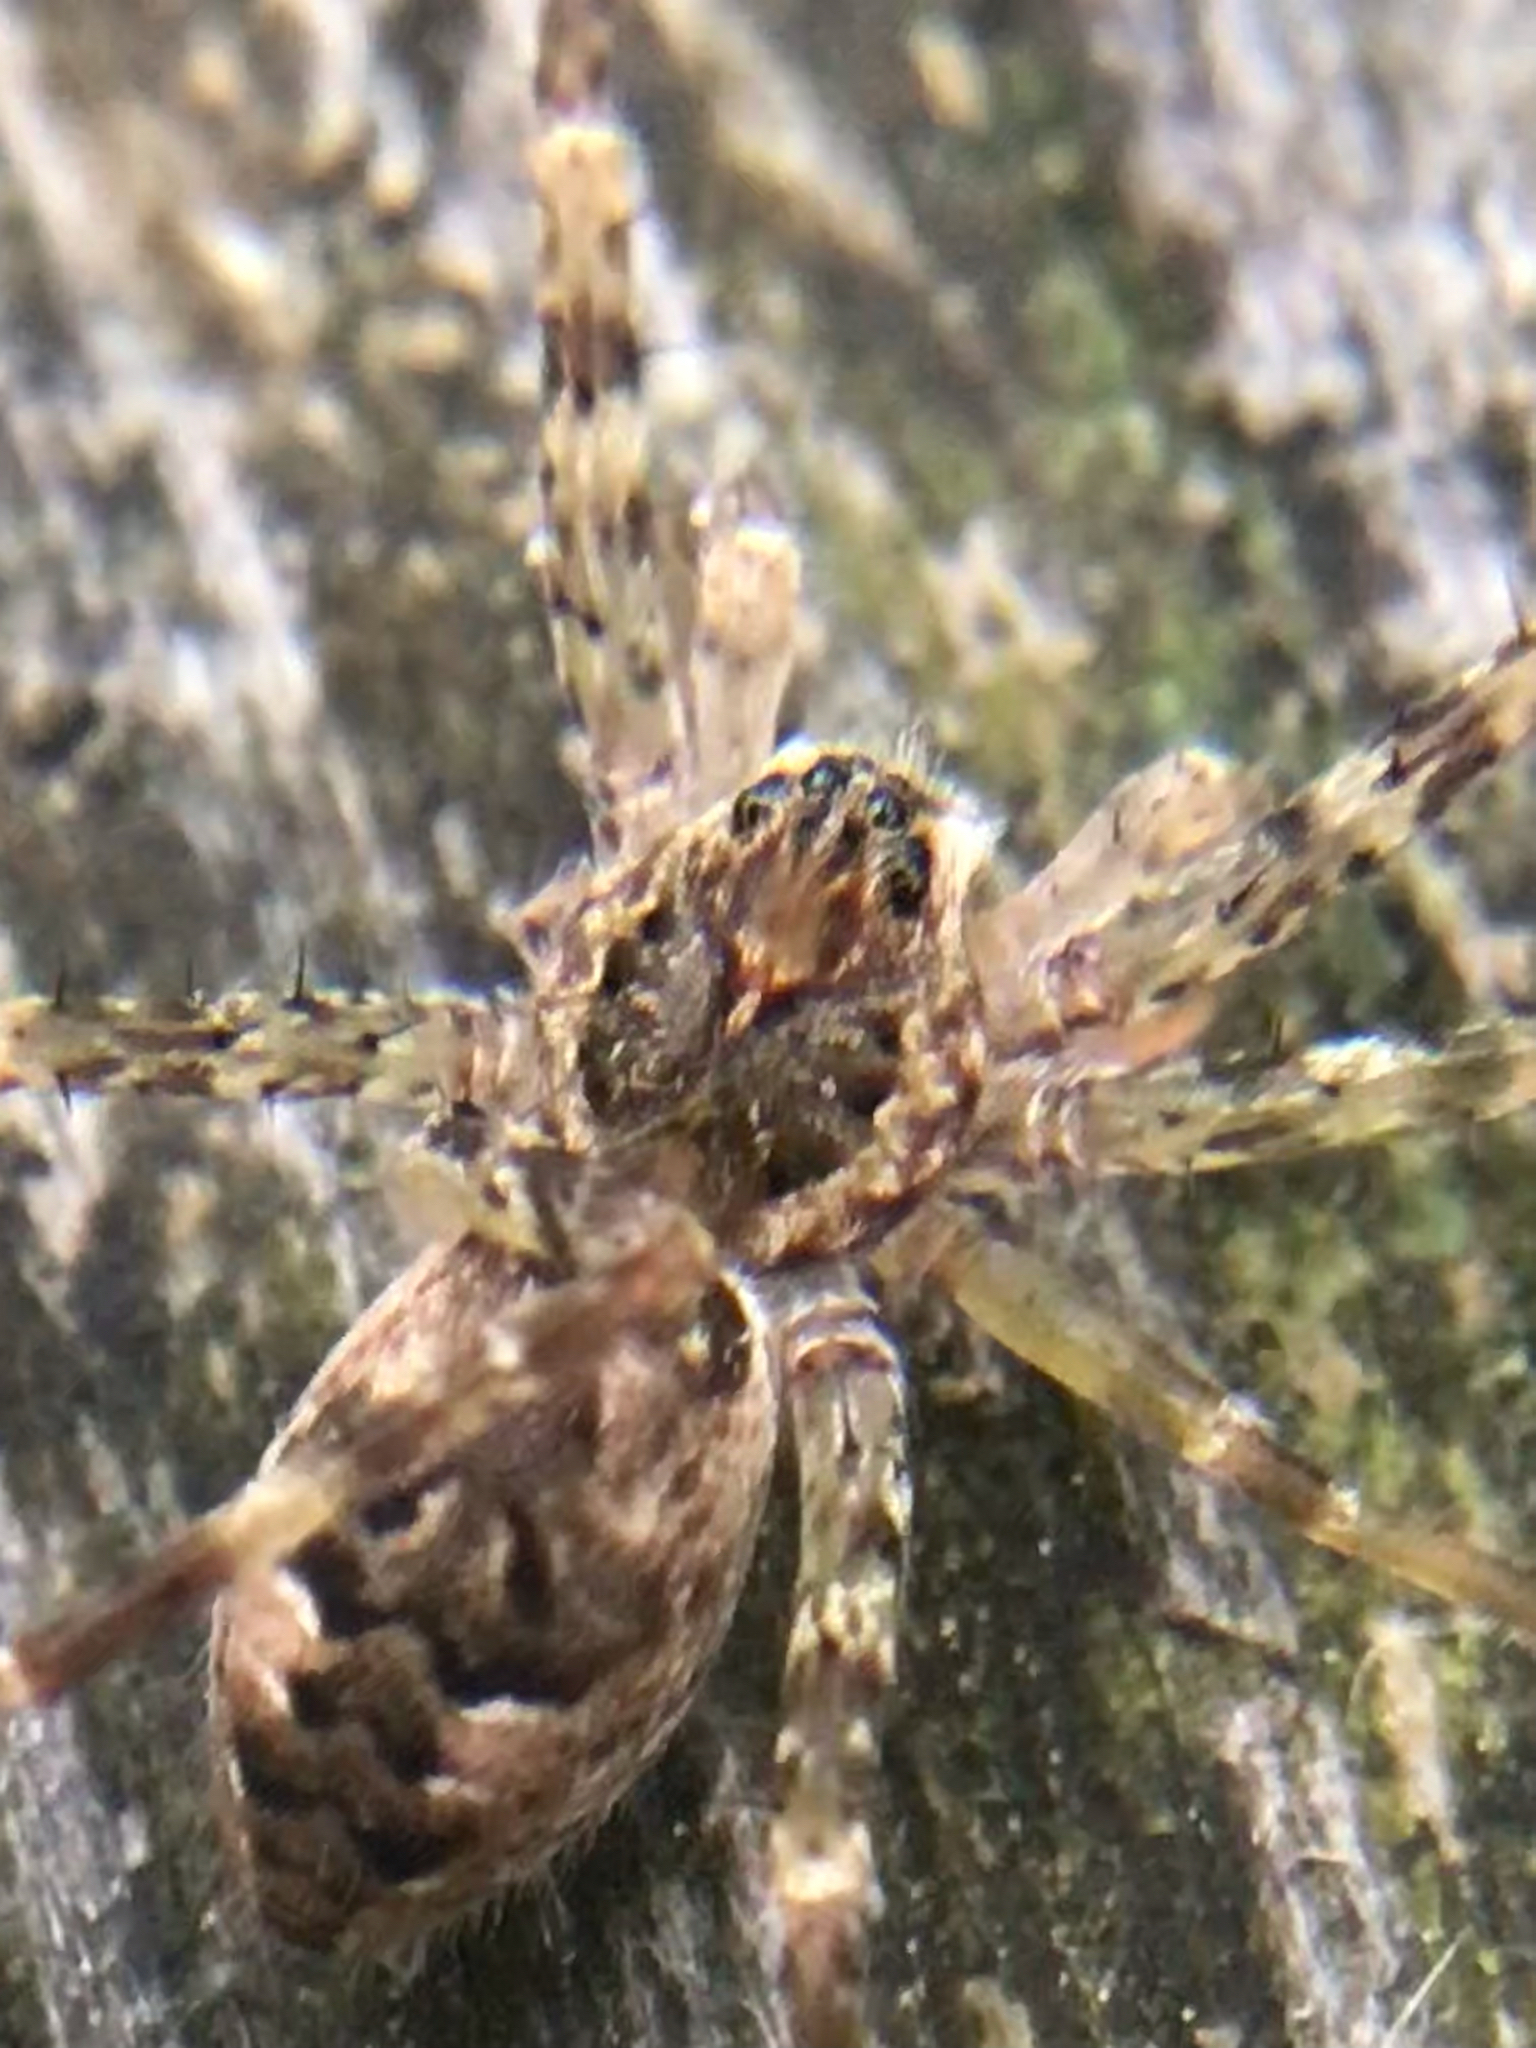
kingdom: Animalia
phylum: Arthropoda
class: Arachnida
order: Araneae
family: Pisauridae
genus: Dolomedes
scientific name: Dolomedes tenebrosus
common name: Dark fishing spider
